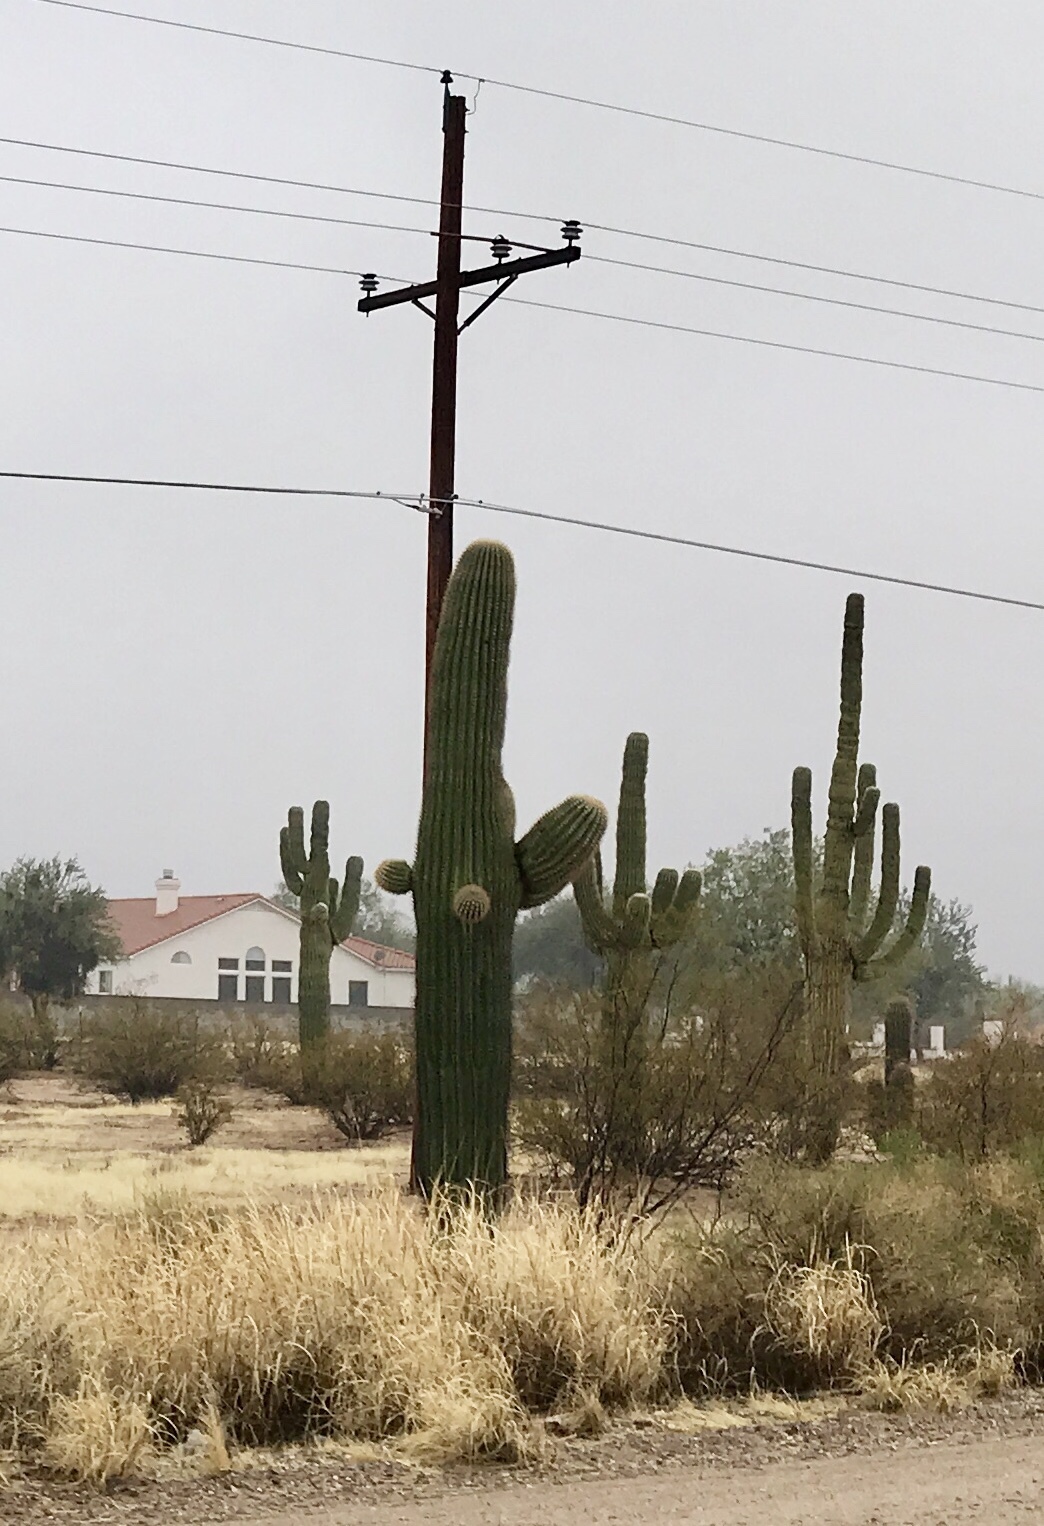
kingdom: Plantae
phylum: Tracheophyta
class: Magnoliopsida
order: Caryophyllales
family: Cactaceae
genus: Carnegiea
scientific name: Carnegiea gigantea
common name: Saguaro
